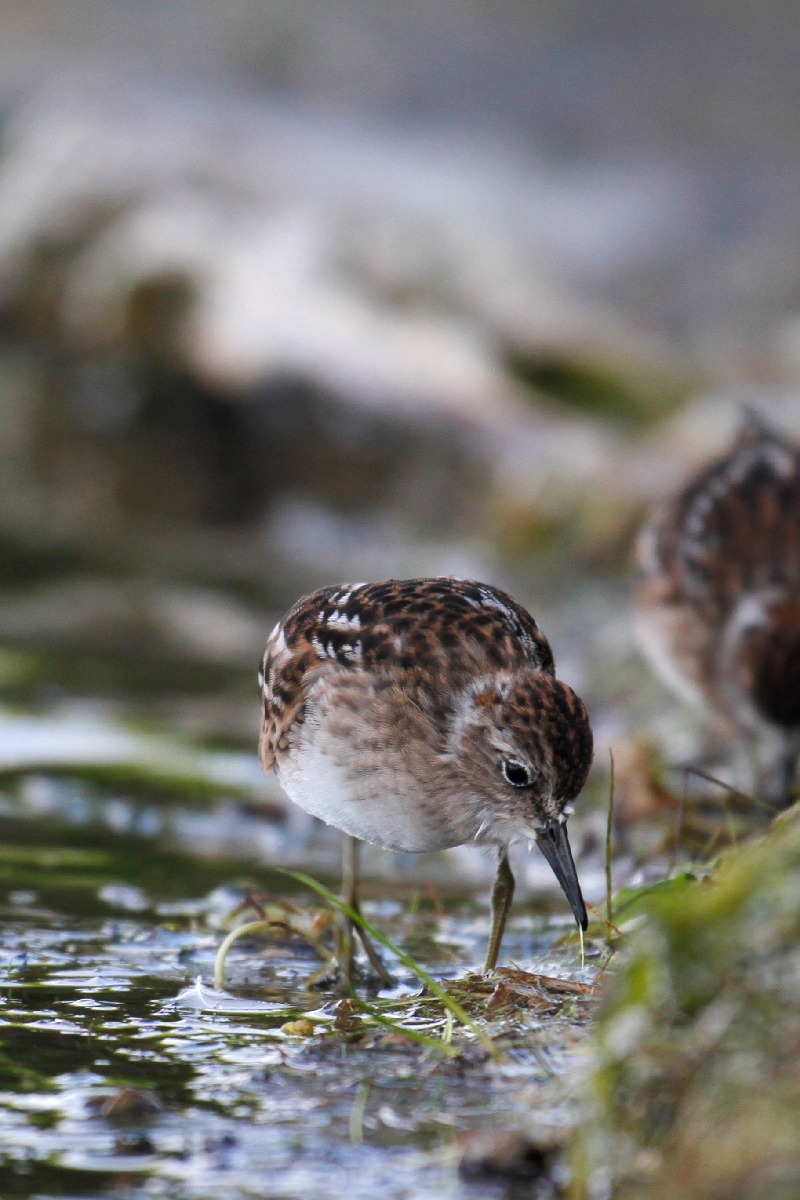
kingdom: Animalia
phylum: Chordata
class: Aves
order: Charadriiformes
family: Scolopacidae
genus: Calidris
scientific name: Calidris minutilla
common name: Least sandpiper
